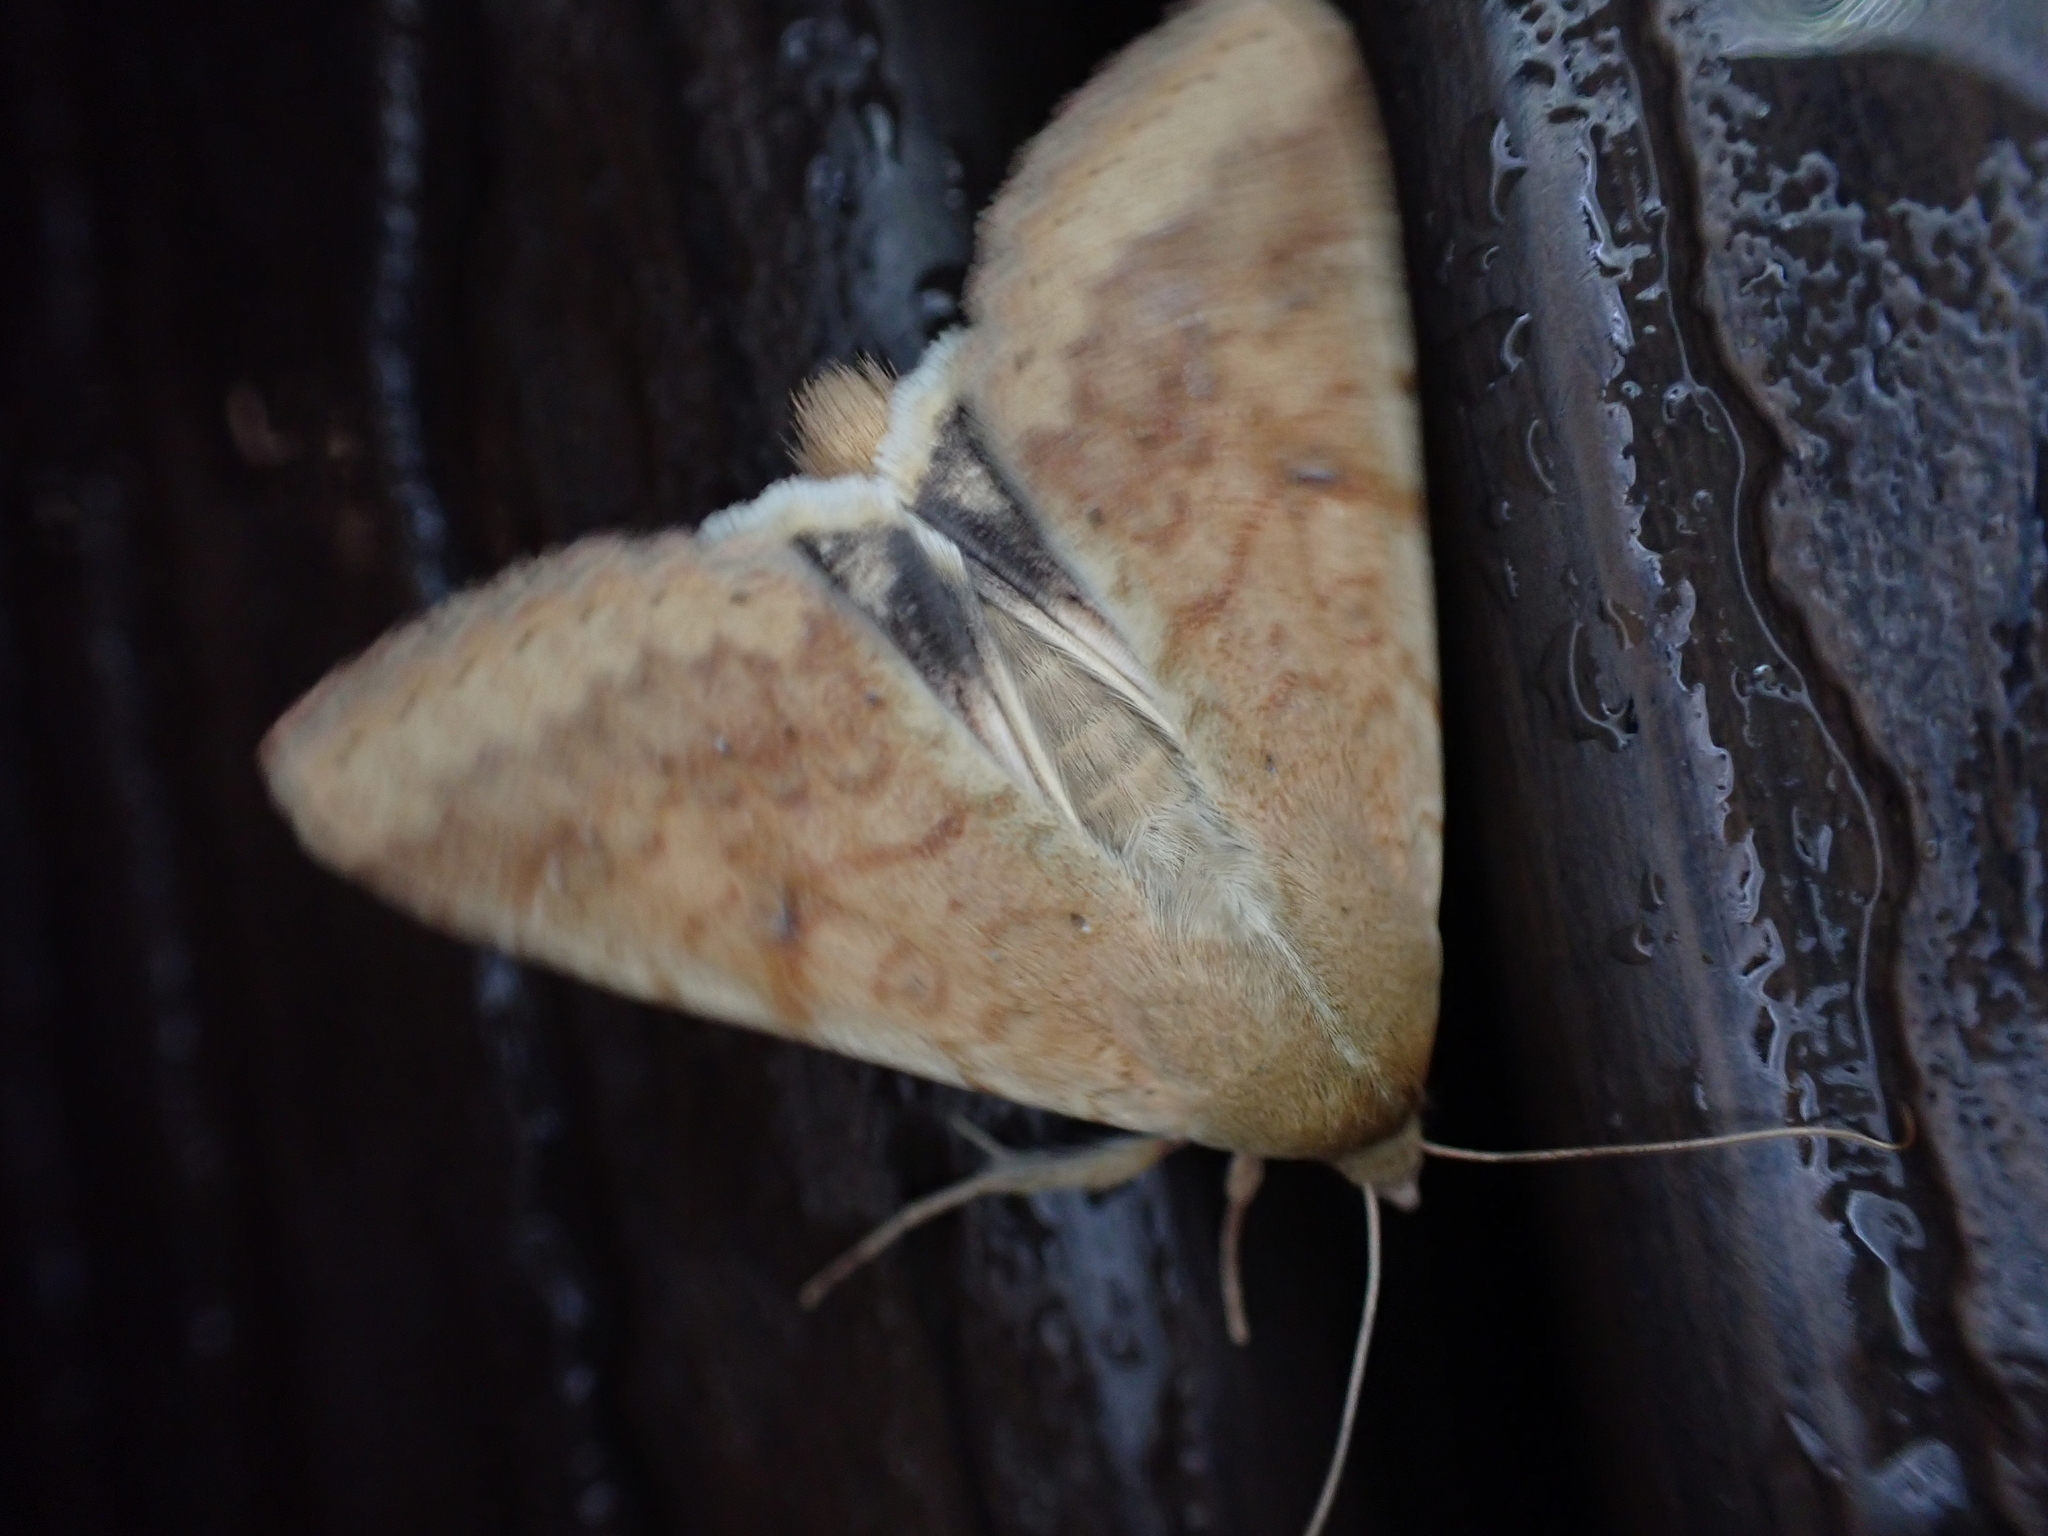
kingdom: Animalia
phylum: Arthropoda
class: Insecta
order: Lepidoptera
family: Noctuidae
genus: Helicoverpa
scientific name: Helicoverpa zea
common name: Bollworm
